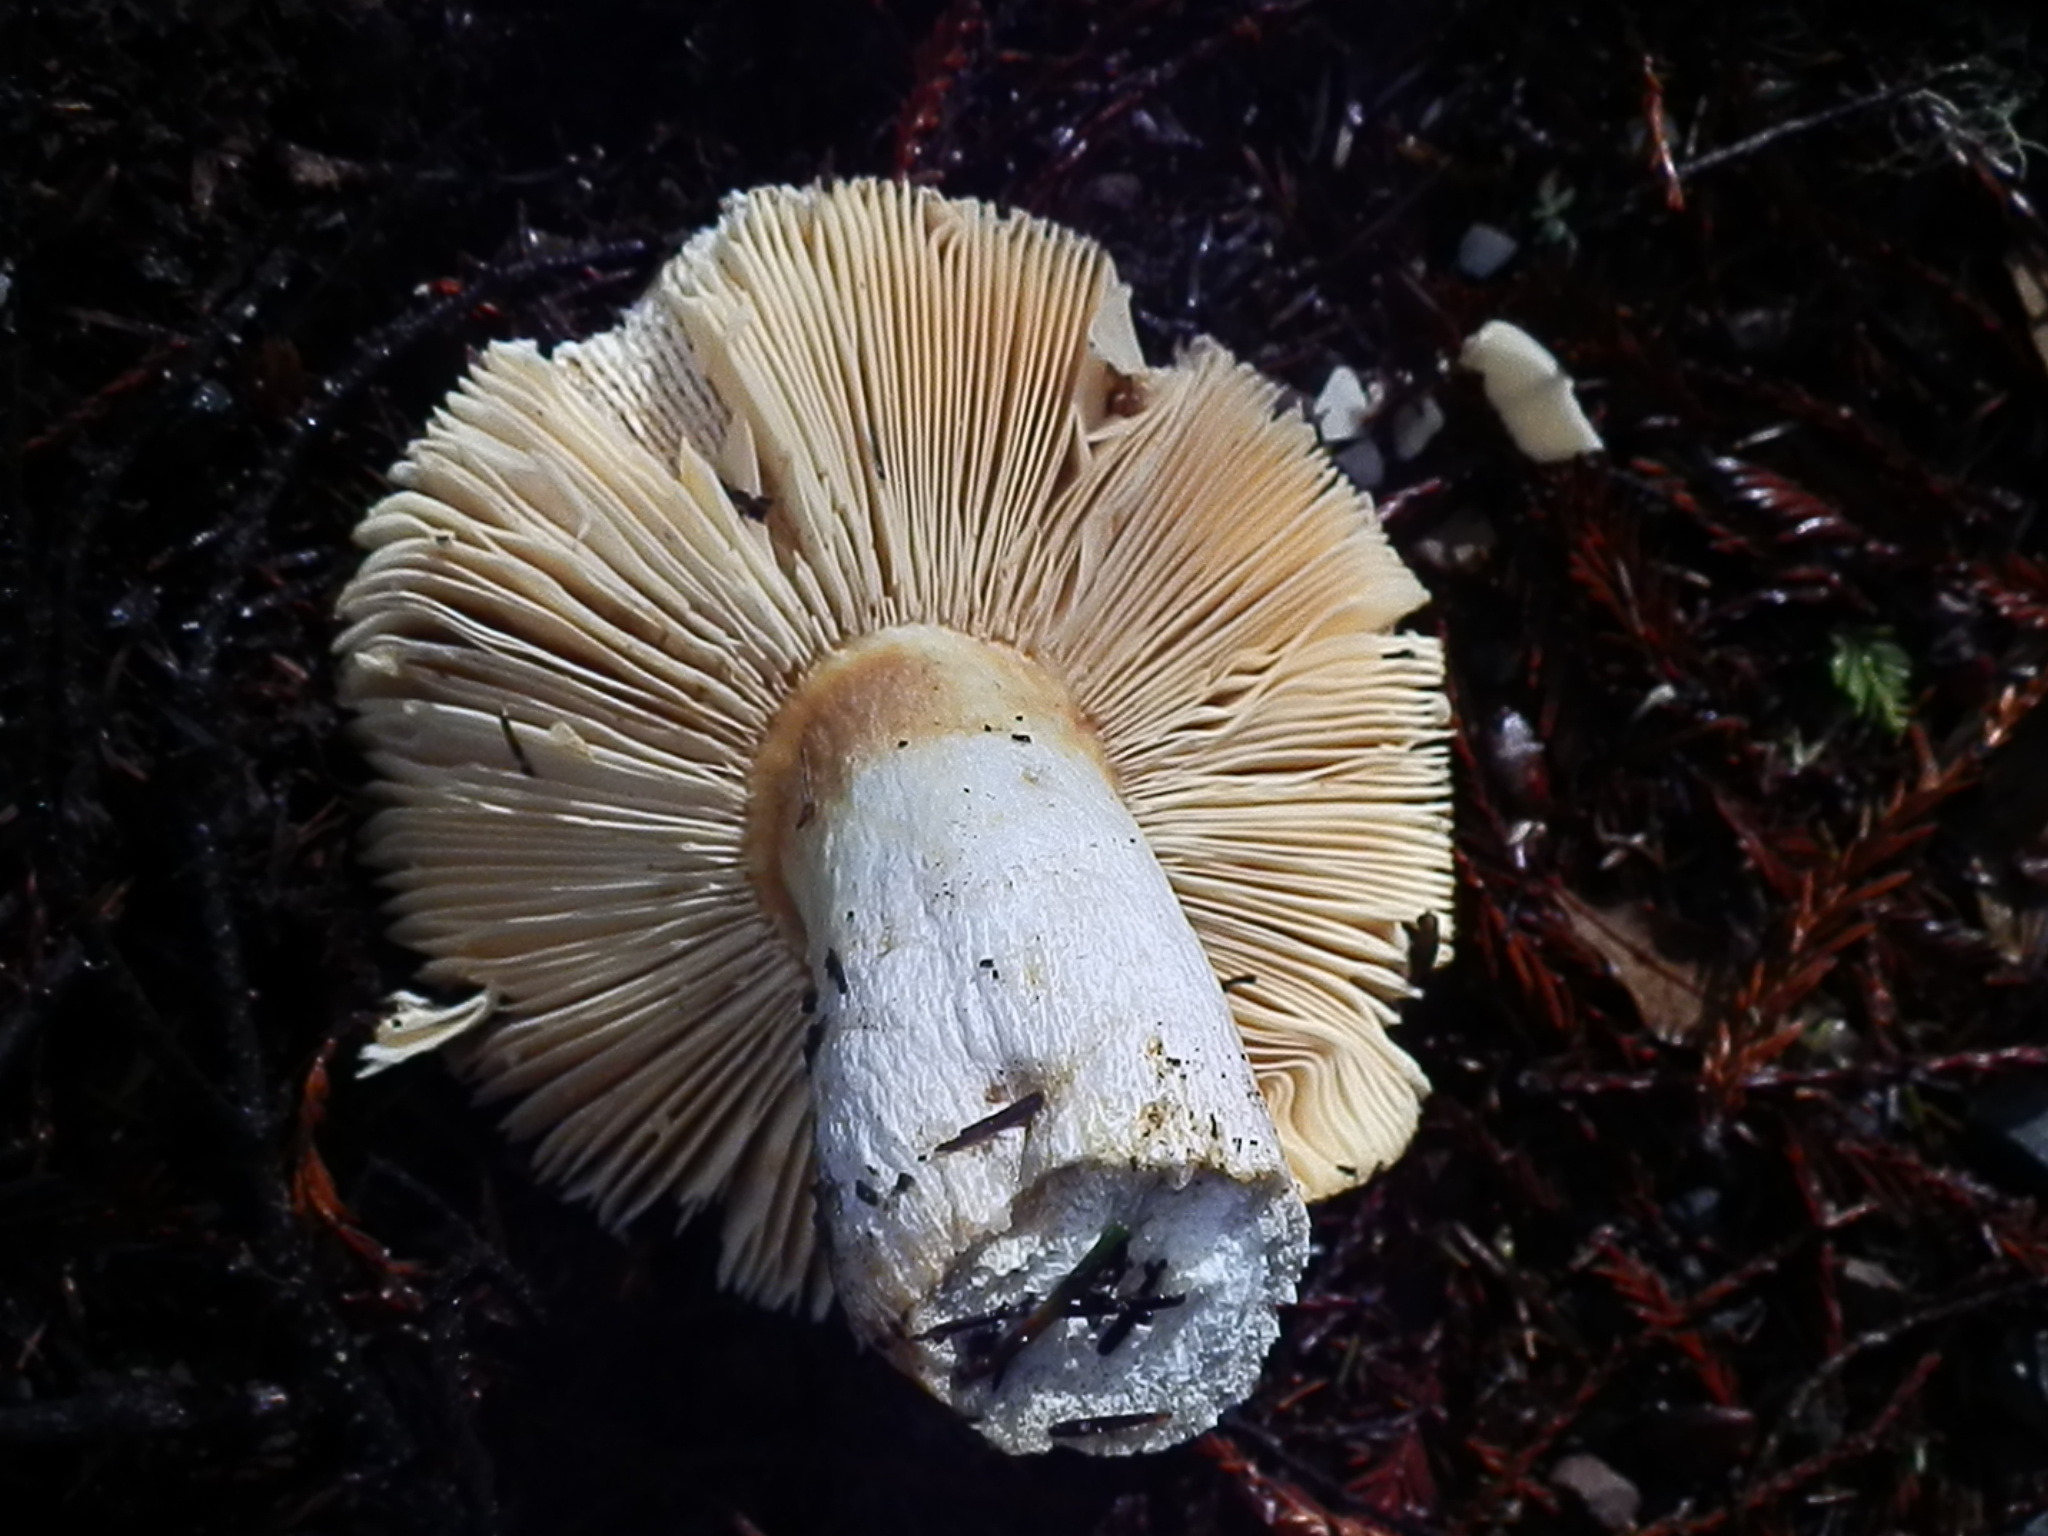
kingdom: Fungi
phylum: Basidiomycota
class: Agaricomycetes
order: Russulales
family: Russulaceae
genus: Russula
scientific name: Russula integra
